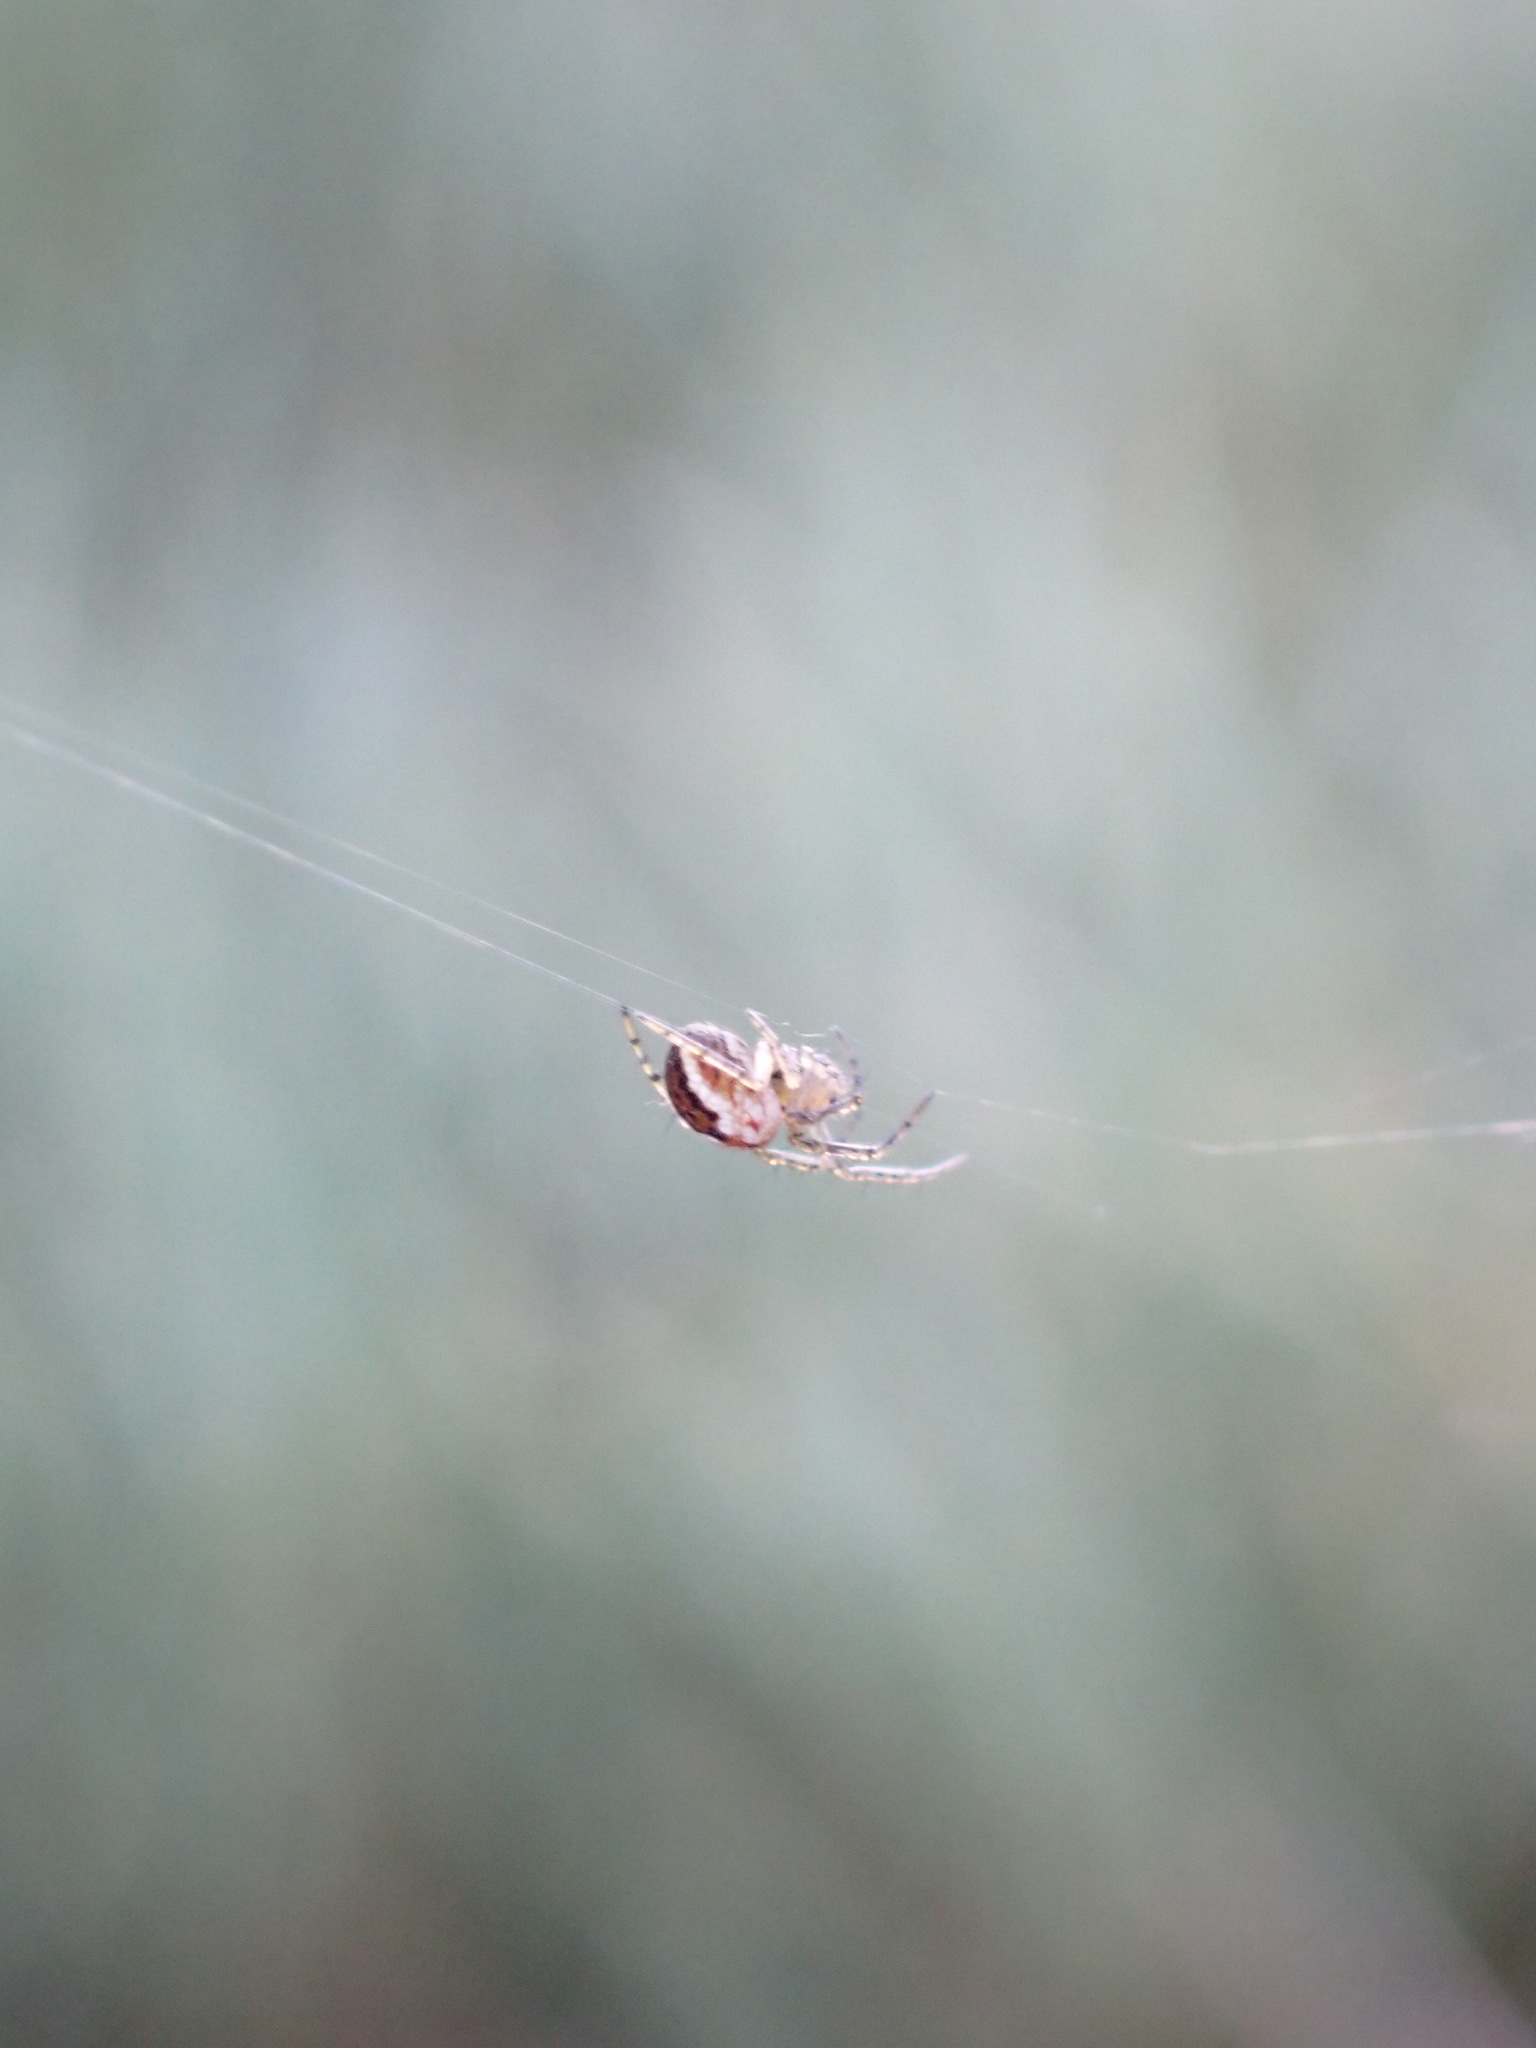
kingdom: Animalia
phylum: Arthropoda
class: Arachnida
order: Araneae
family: Araneidae
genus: Mangora
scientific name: Mangora acalypha
